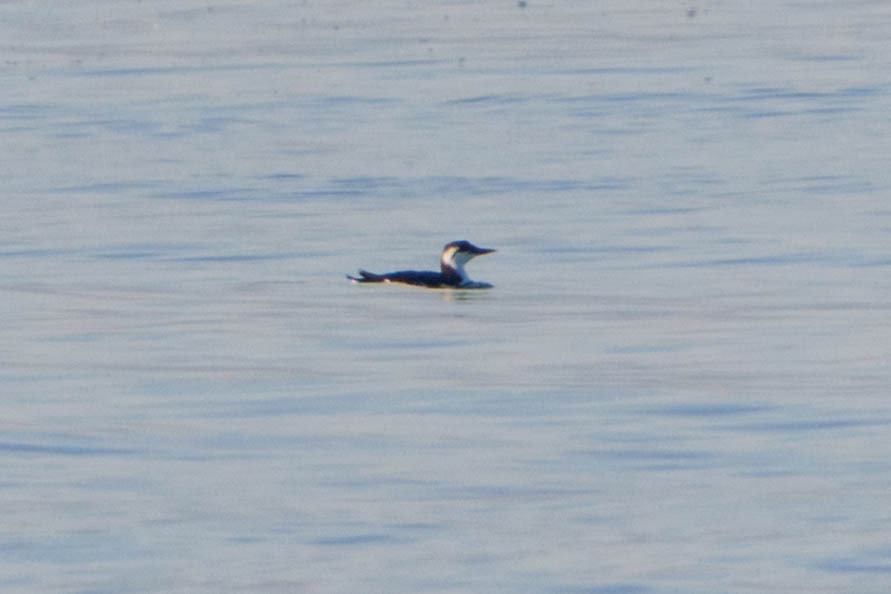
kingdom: Animalia
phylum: Chordata
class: Aves
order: Charadriiformes
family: Alcidae
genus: Uria
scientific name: Uria aalge
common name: Common murre
